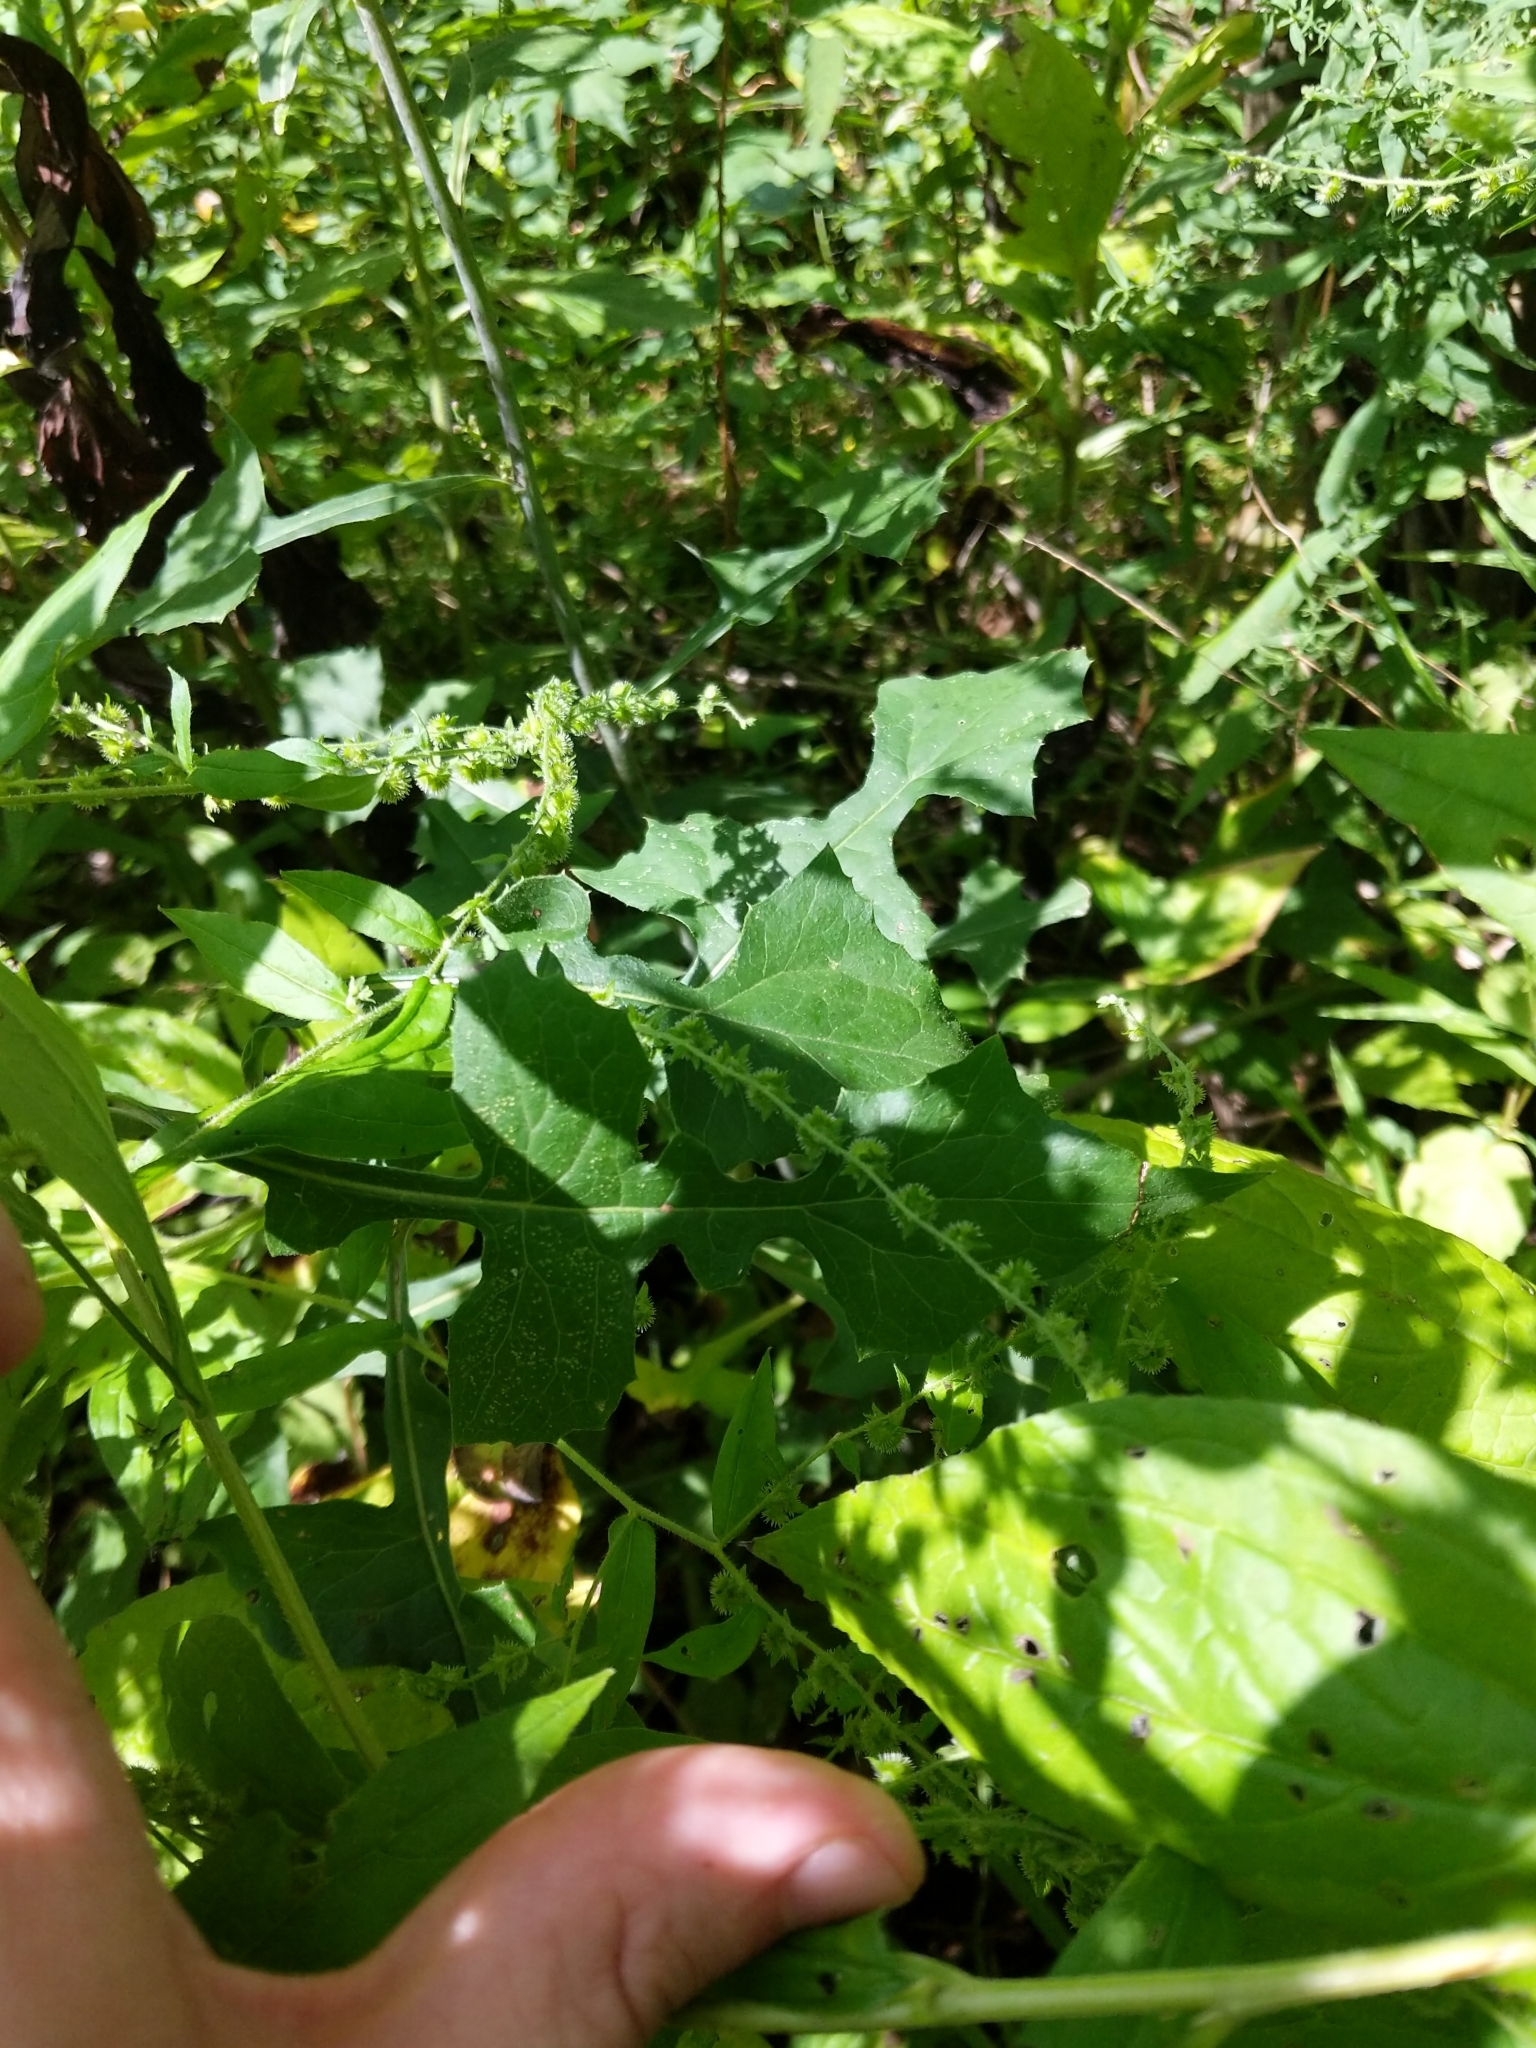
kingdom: Plantae
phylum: Tracheophyta
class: Magnoliopsida
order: Asterales
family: Asteraceae
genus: Lactuca
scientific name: Lactuca floridana
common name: Woodland lettuce
